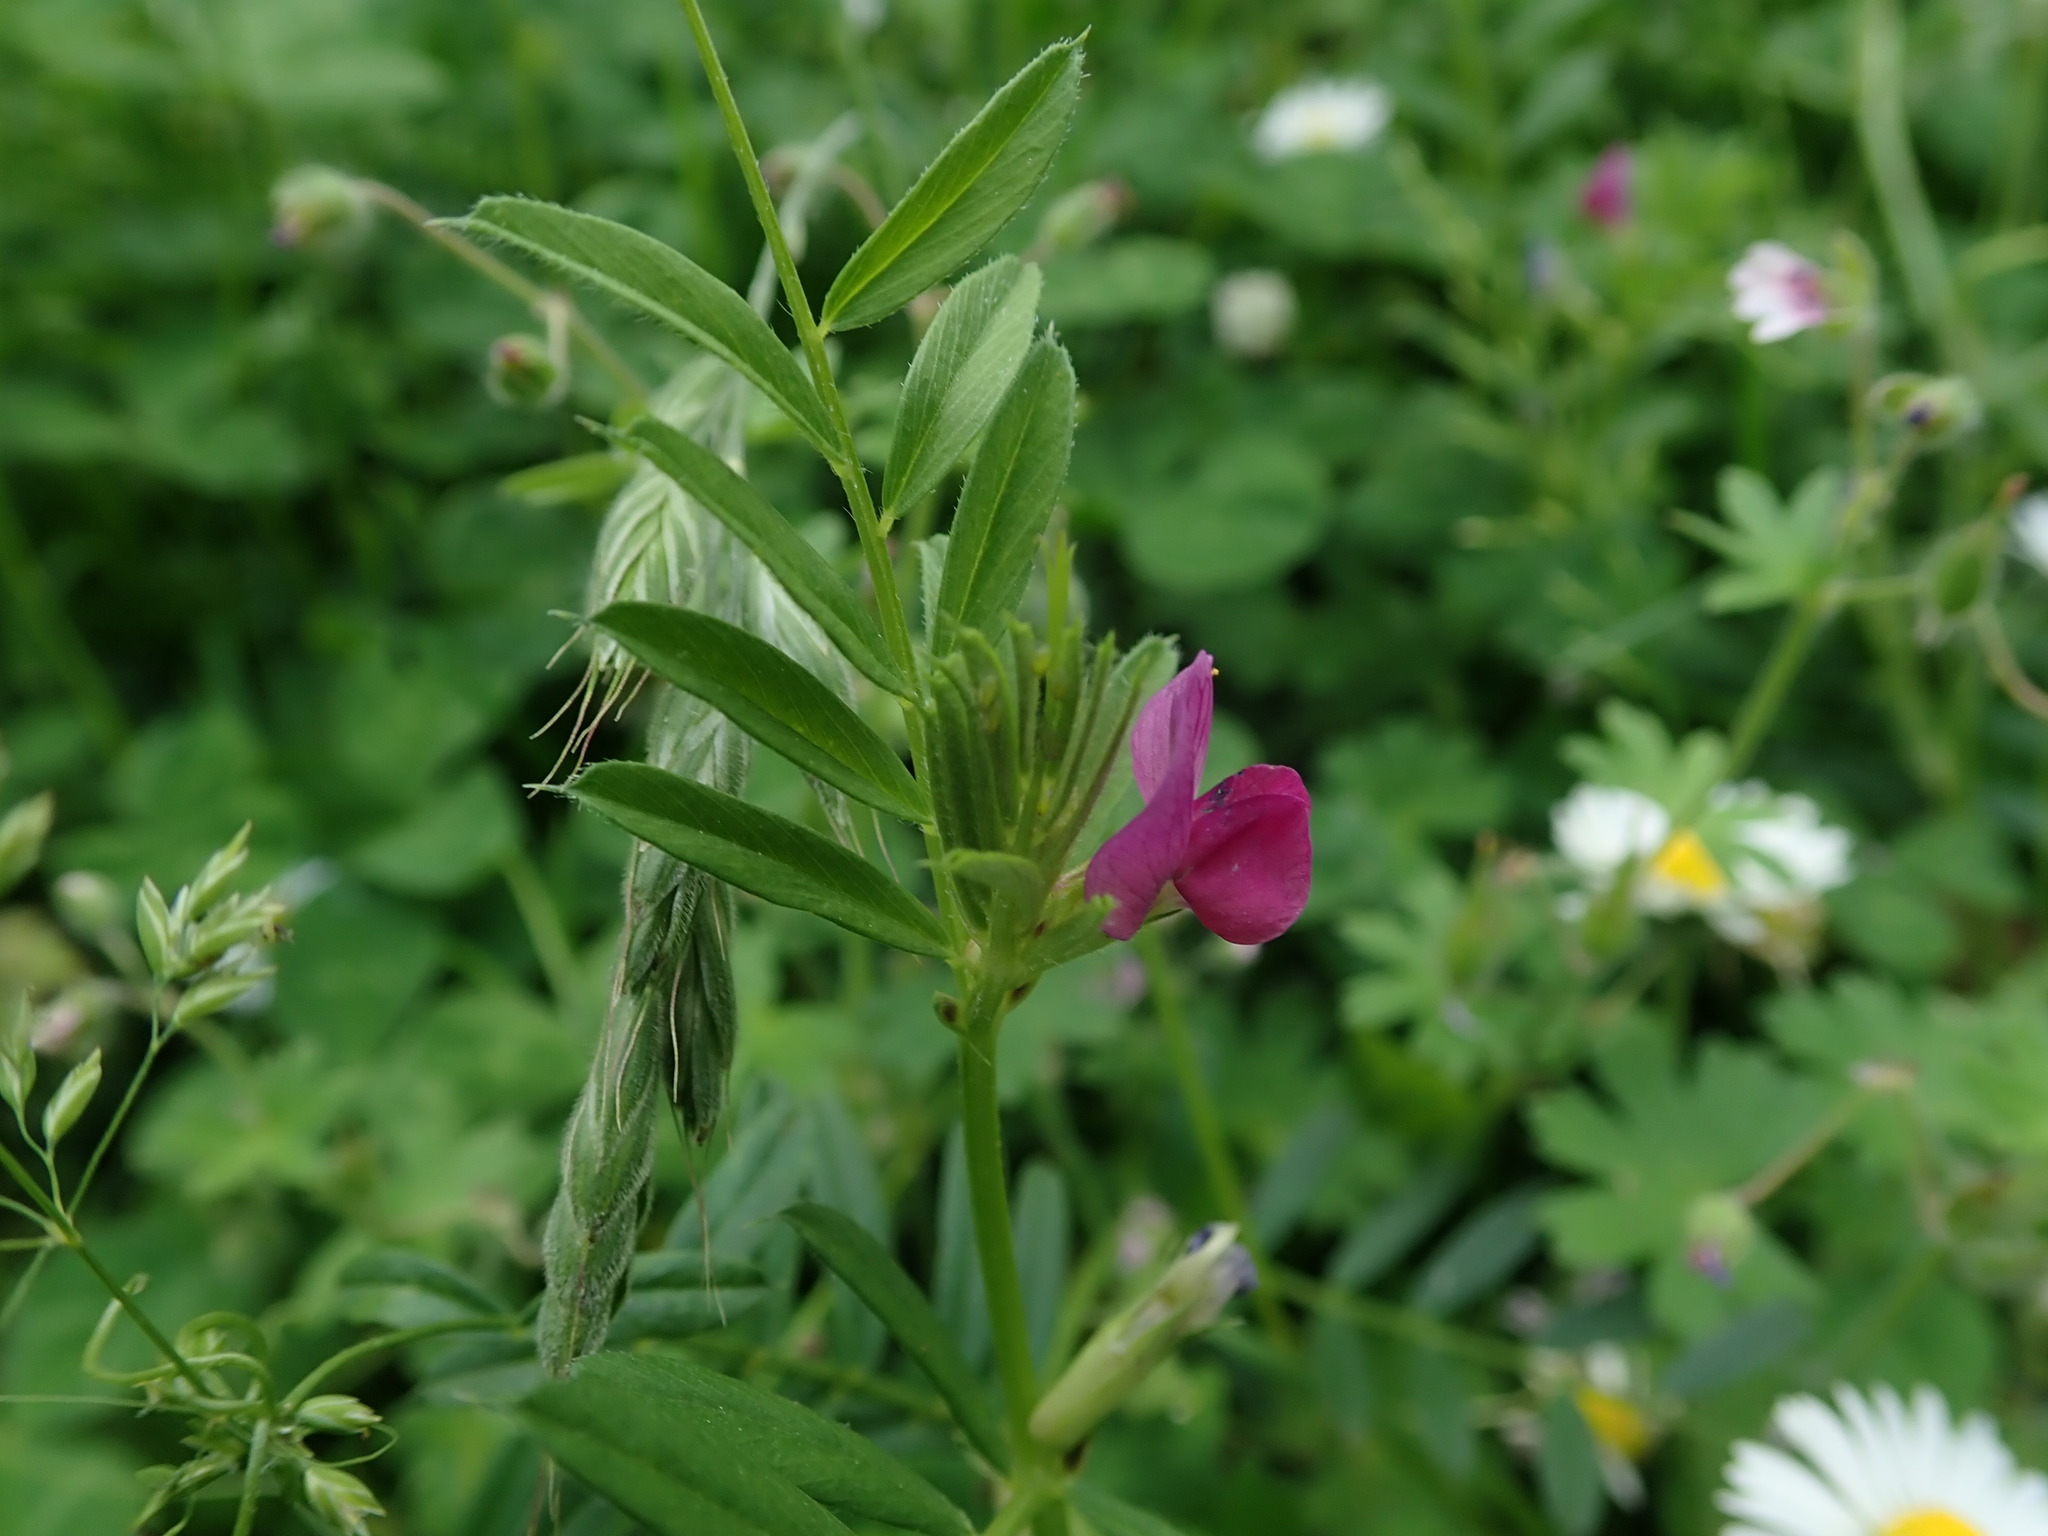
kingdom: Plantae
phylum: Tracheophyta
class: Magnoliopsida
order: Fabales
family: Fabaceae
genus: Vicia
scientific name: Vicia sativa
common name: Garden vetch
